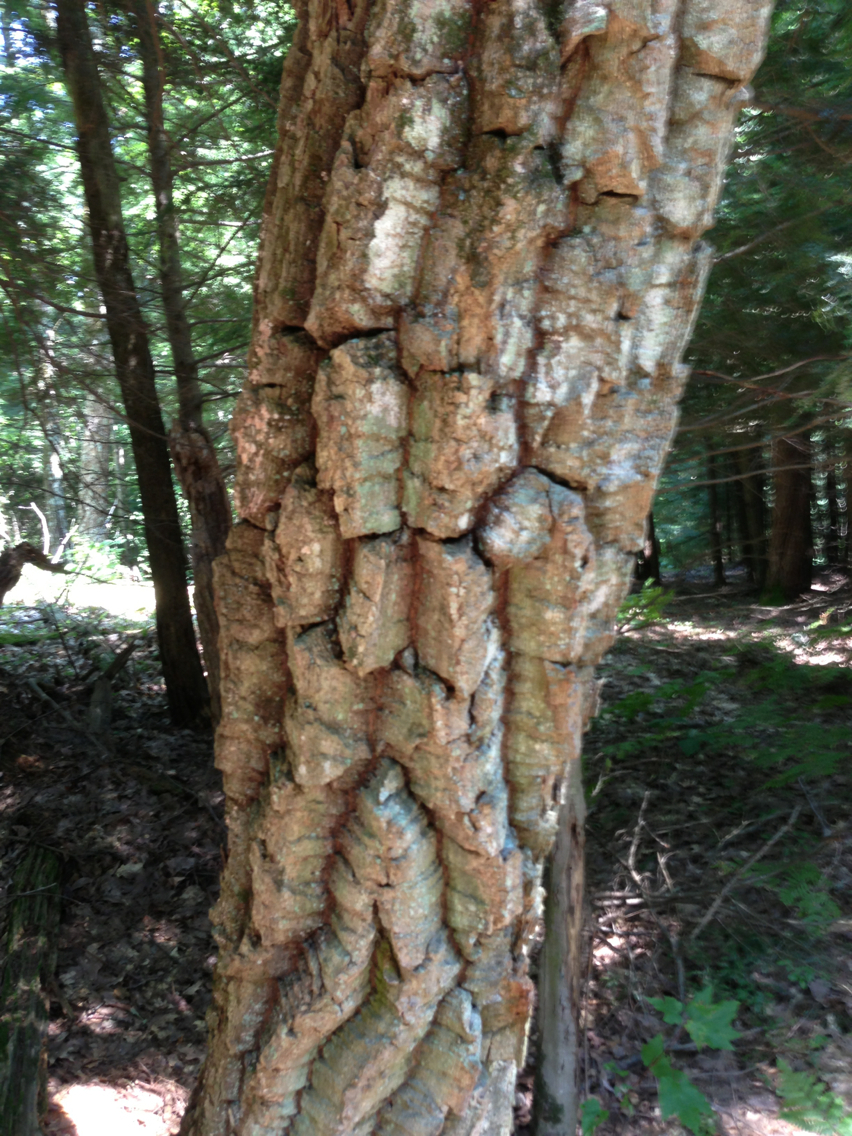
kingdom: Plantae
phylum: Tracheophyta
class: Magnoliopsida
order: Fagales
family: Fagaceae
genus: Quercus
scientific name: Quercus montana
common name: Chestnut oak
